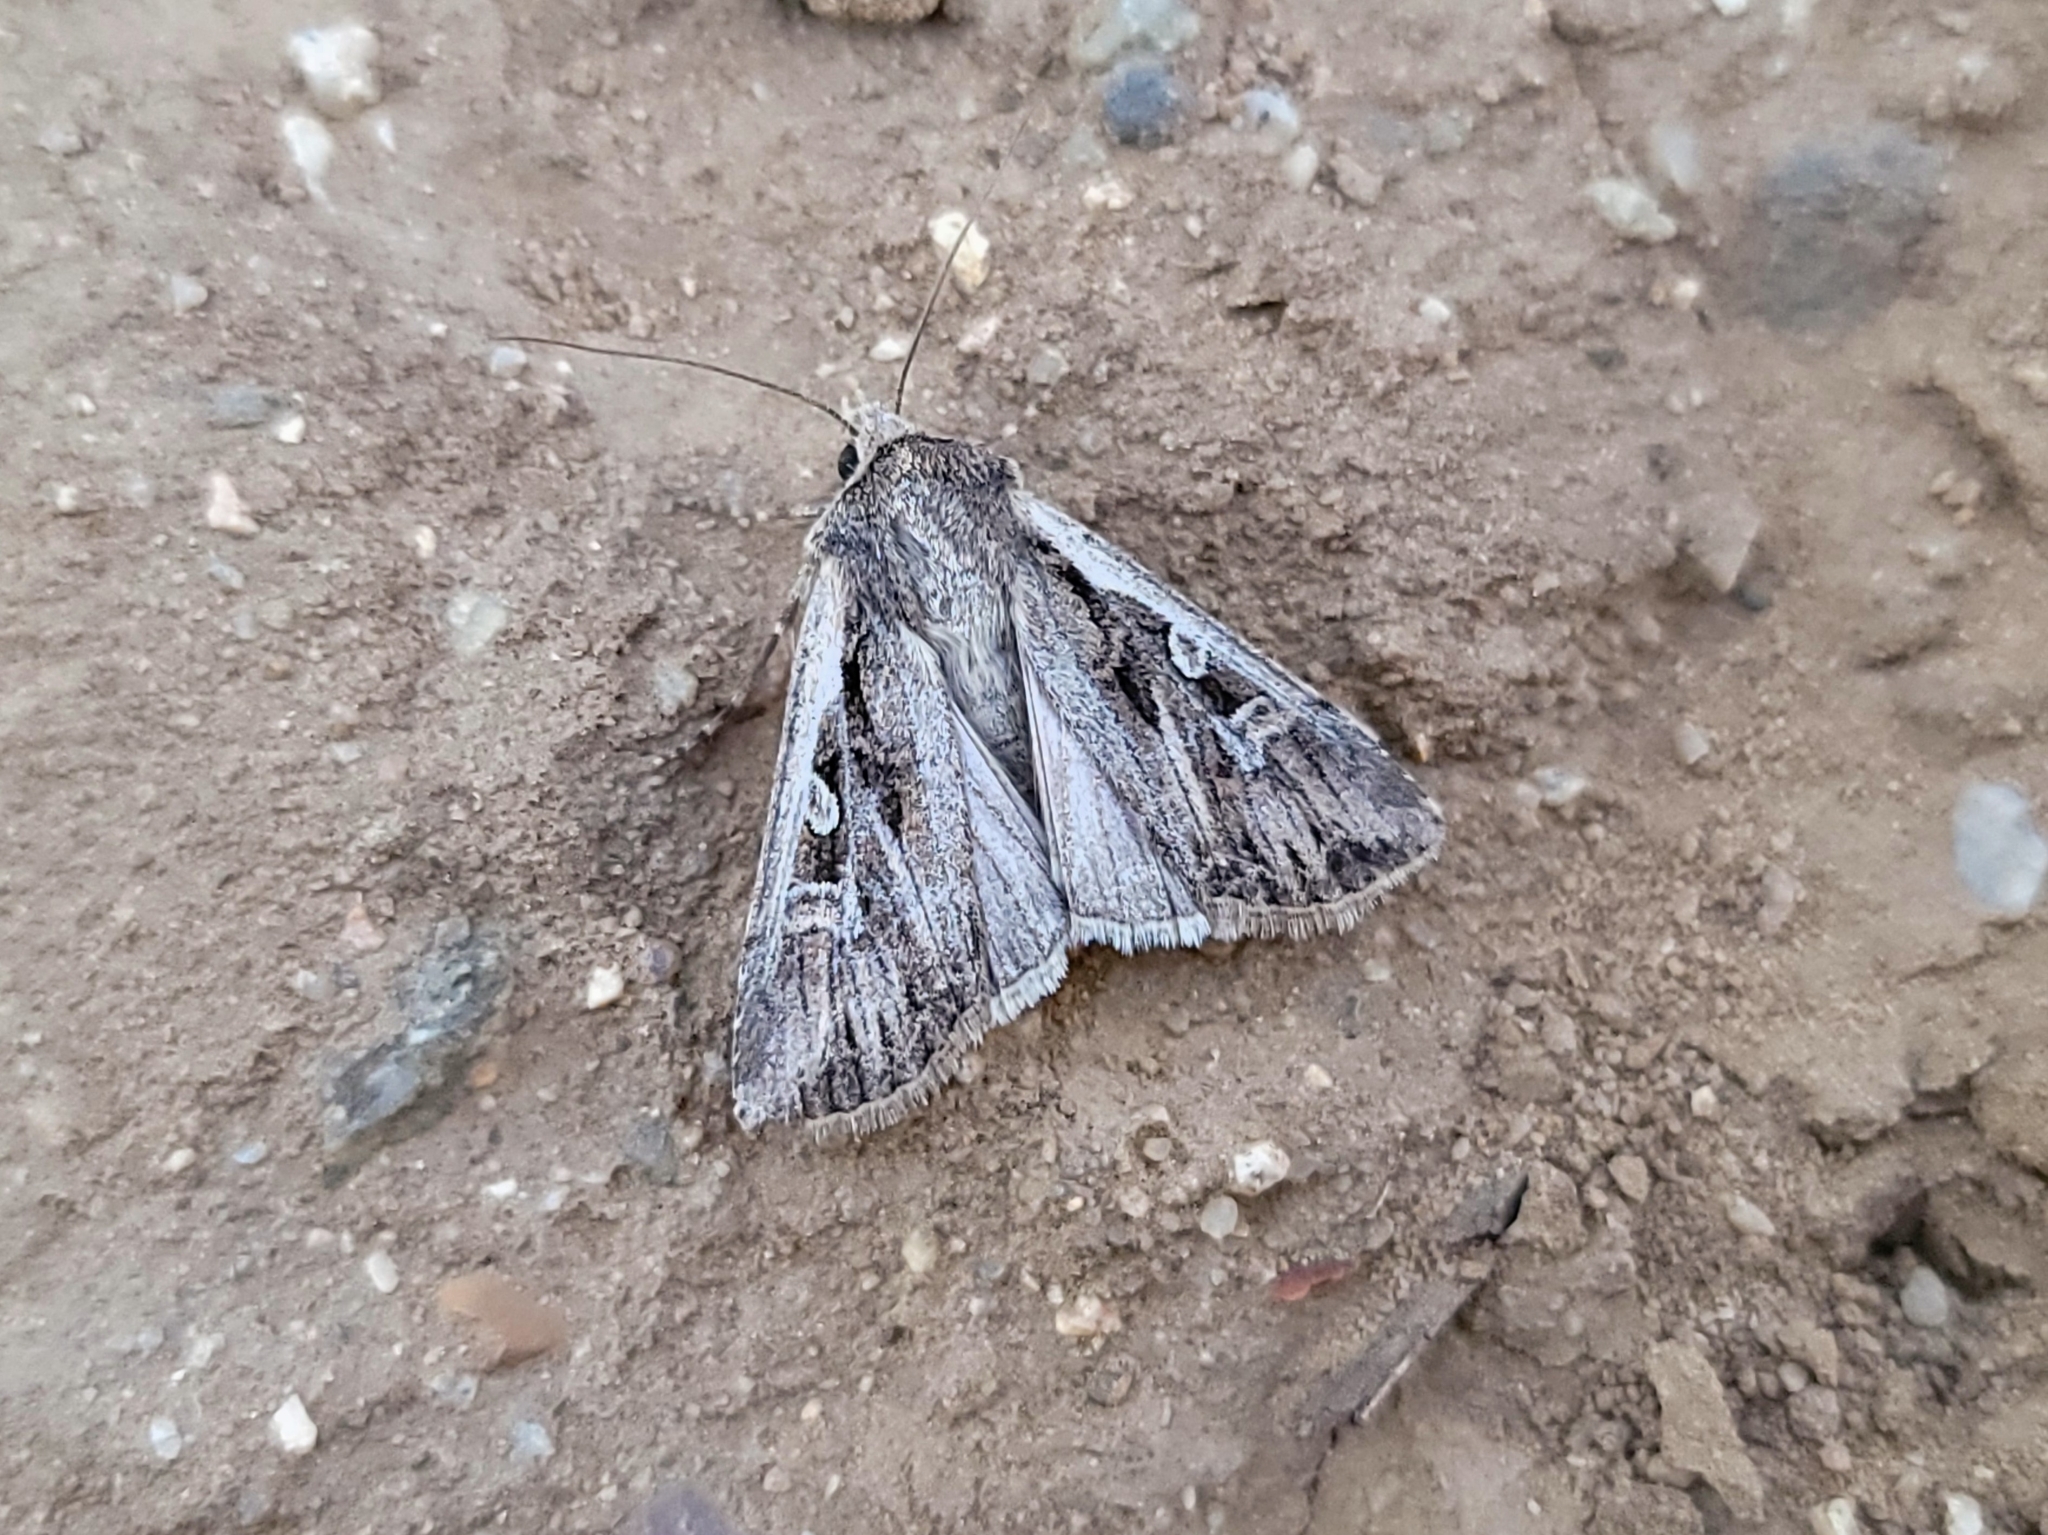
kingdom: Animalia
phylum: Arthropoda
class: Insecta
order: Lepidoptera
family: Noctuidae
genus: Hemieuxoa
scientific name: Hemieuxoa rudens
